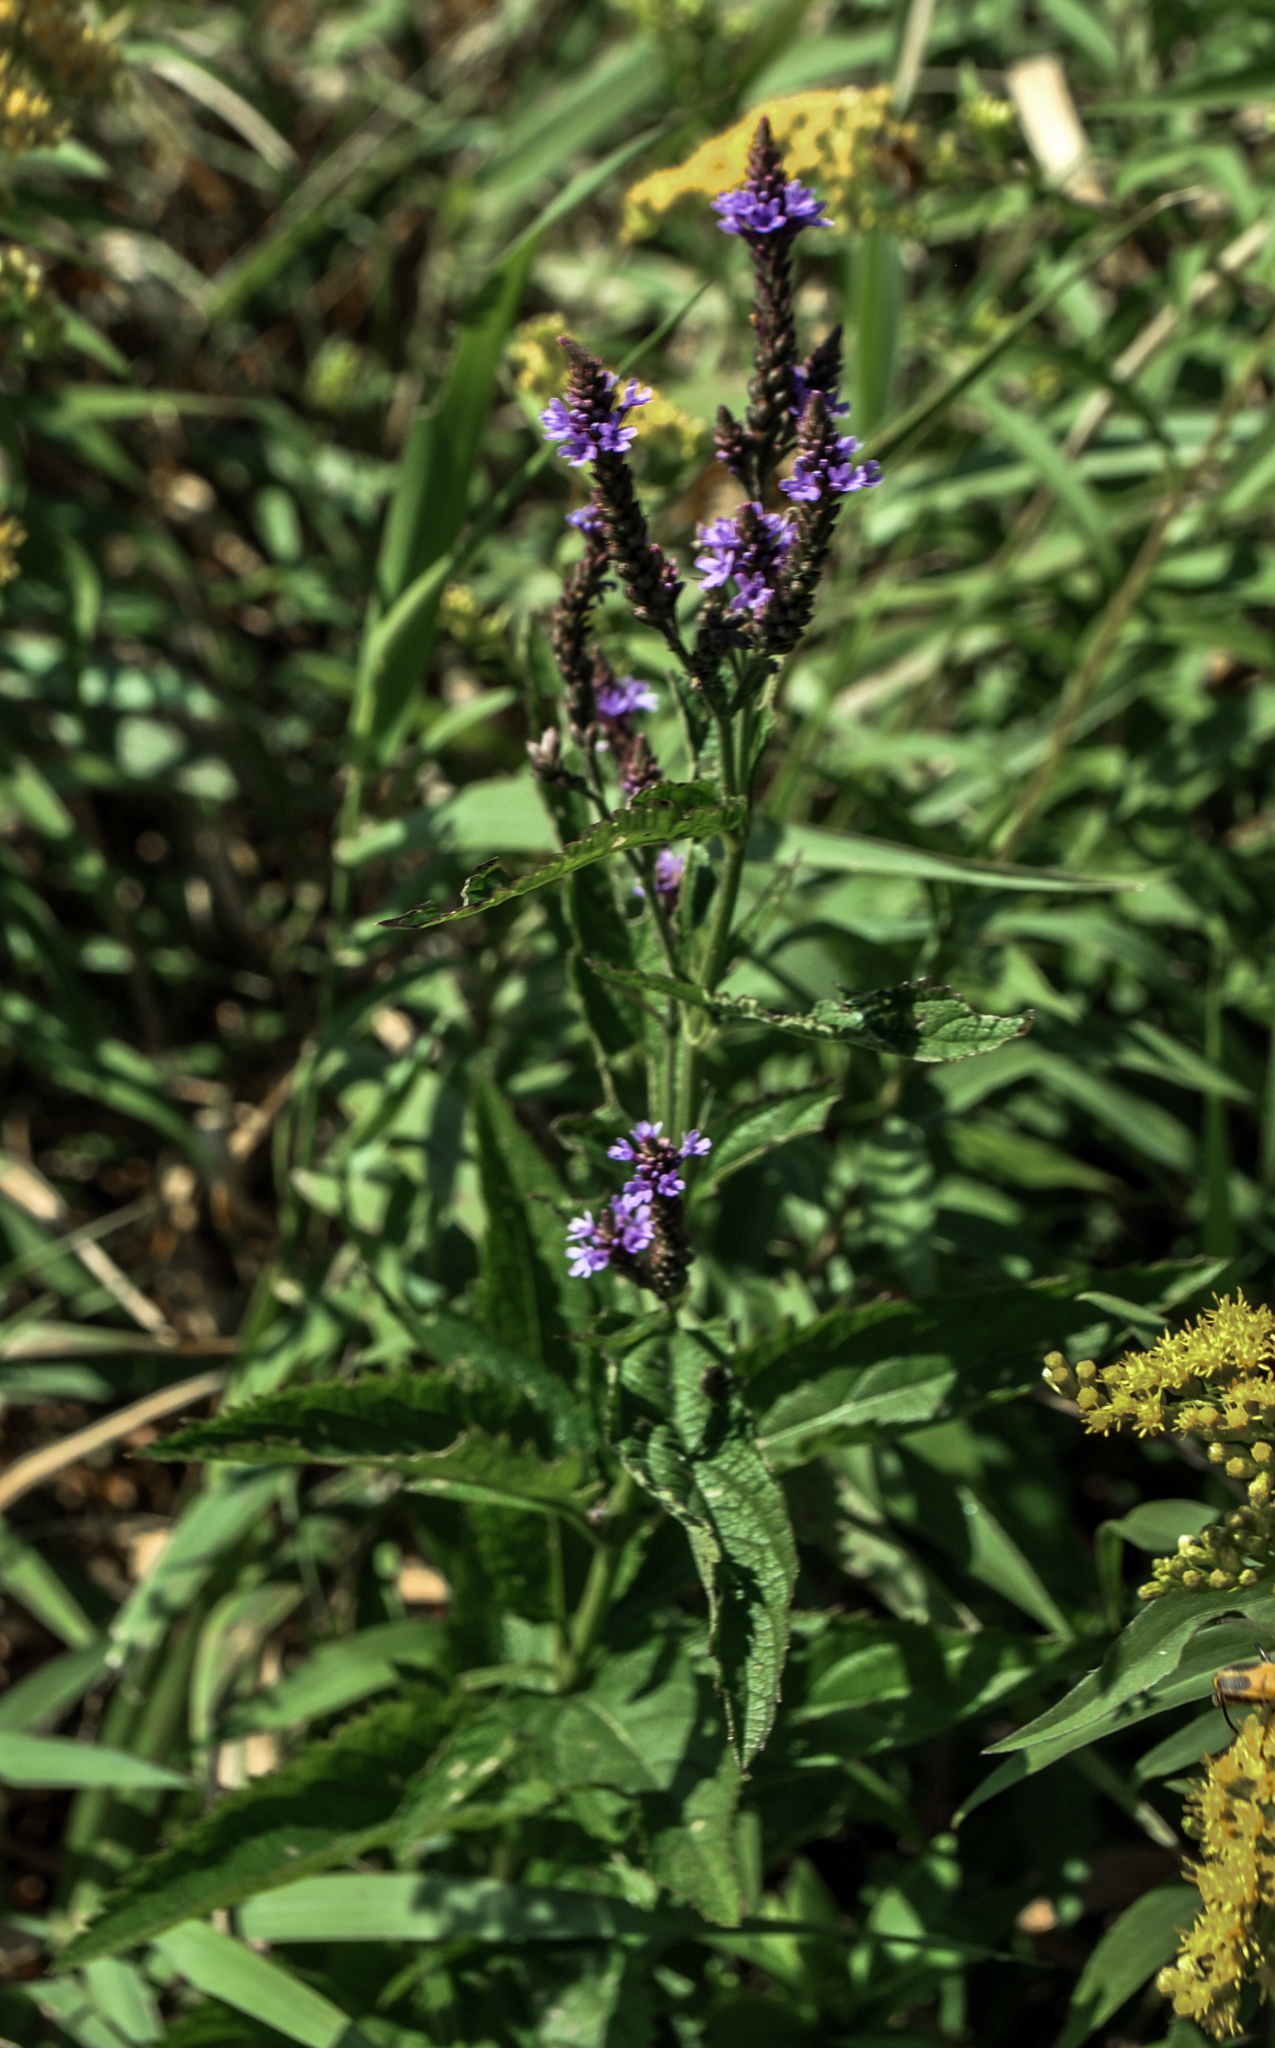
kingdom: Plantae
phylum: Tracheophyta
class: Magnoliopsida
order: Lamiales
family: Verbenaceae
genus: Verbena
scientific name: Verbena hastata
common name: American blue vervain
